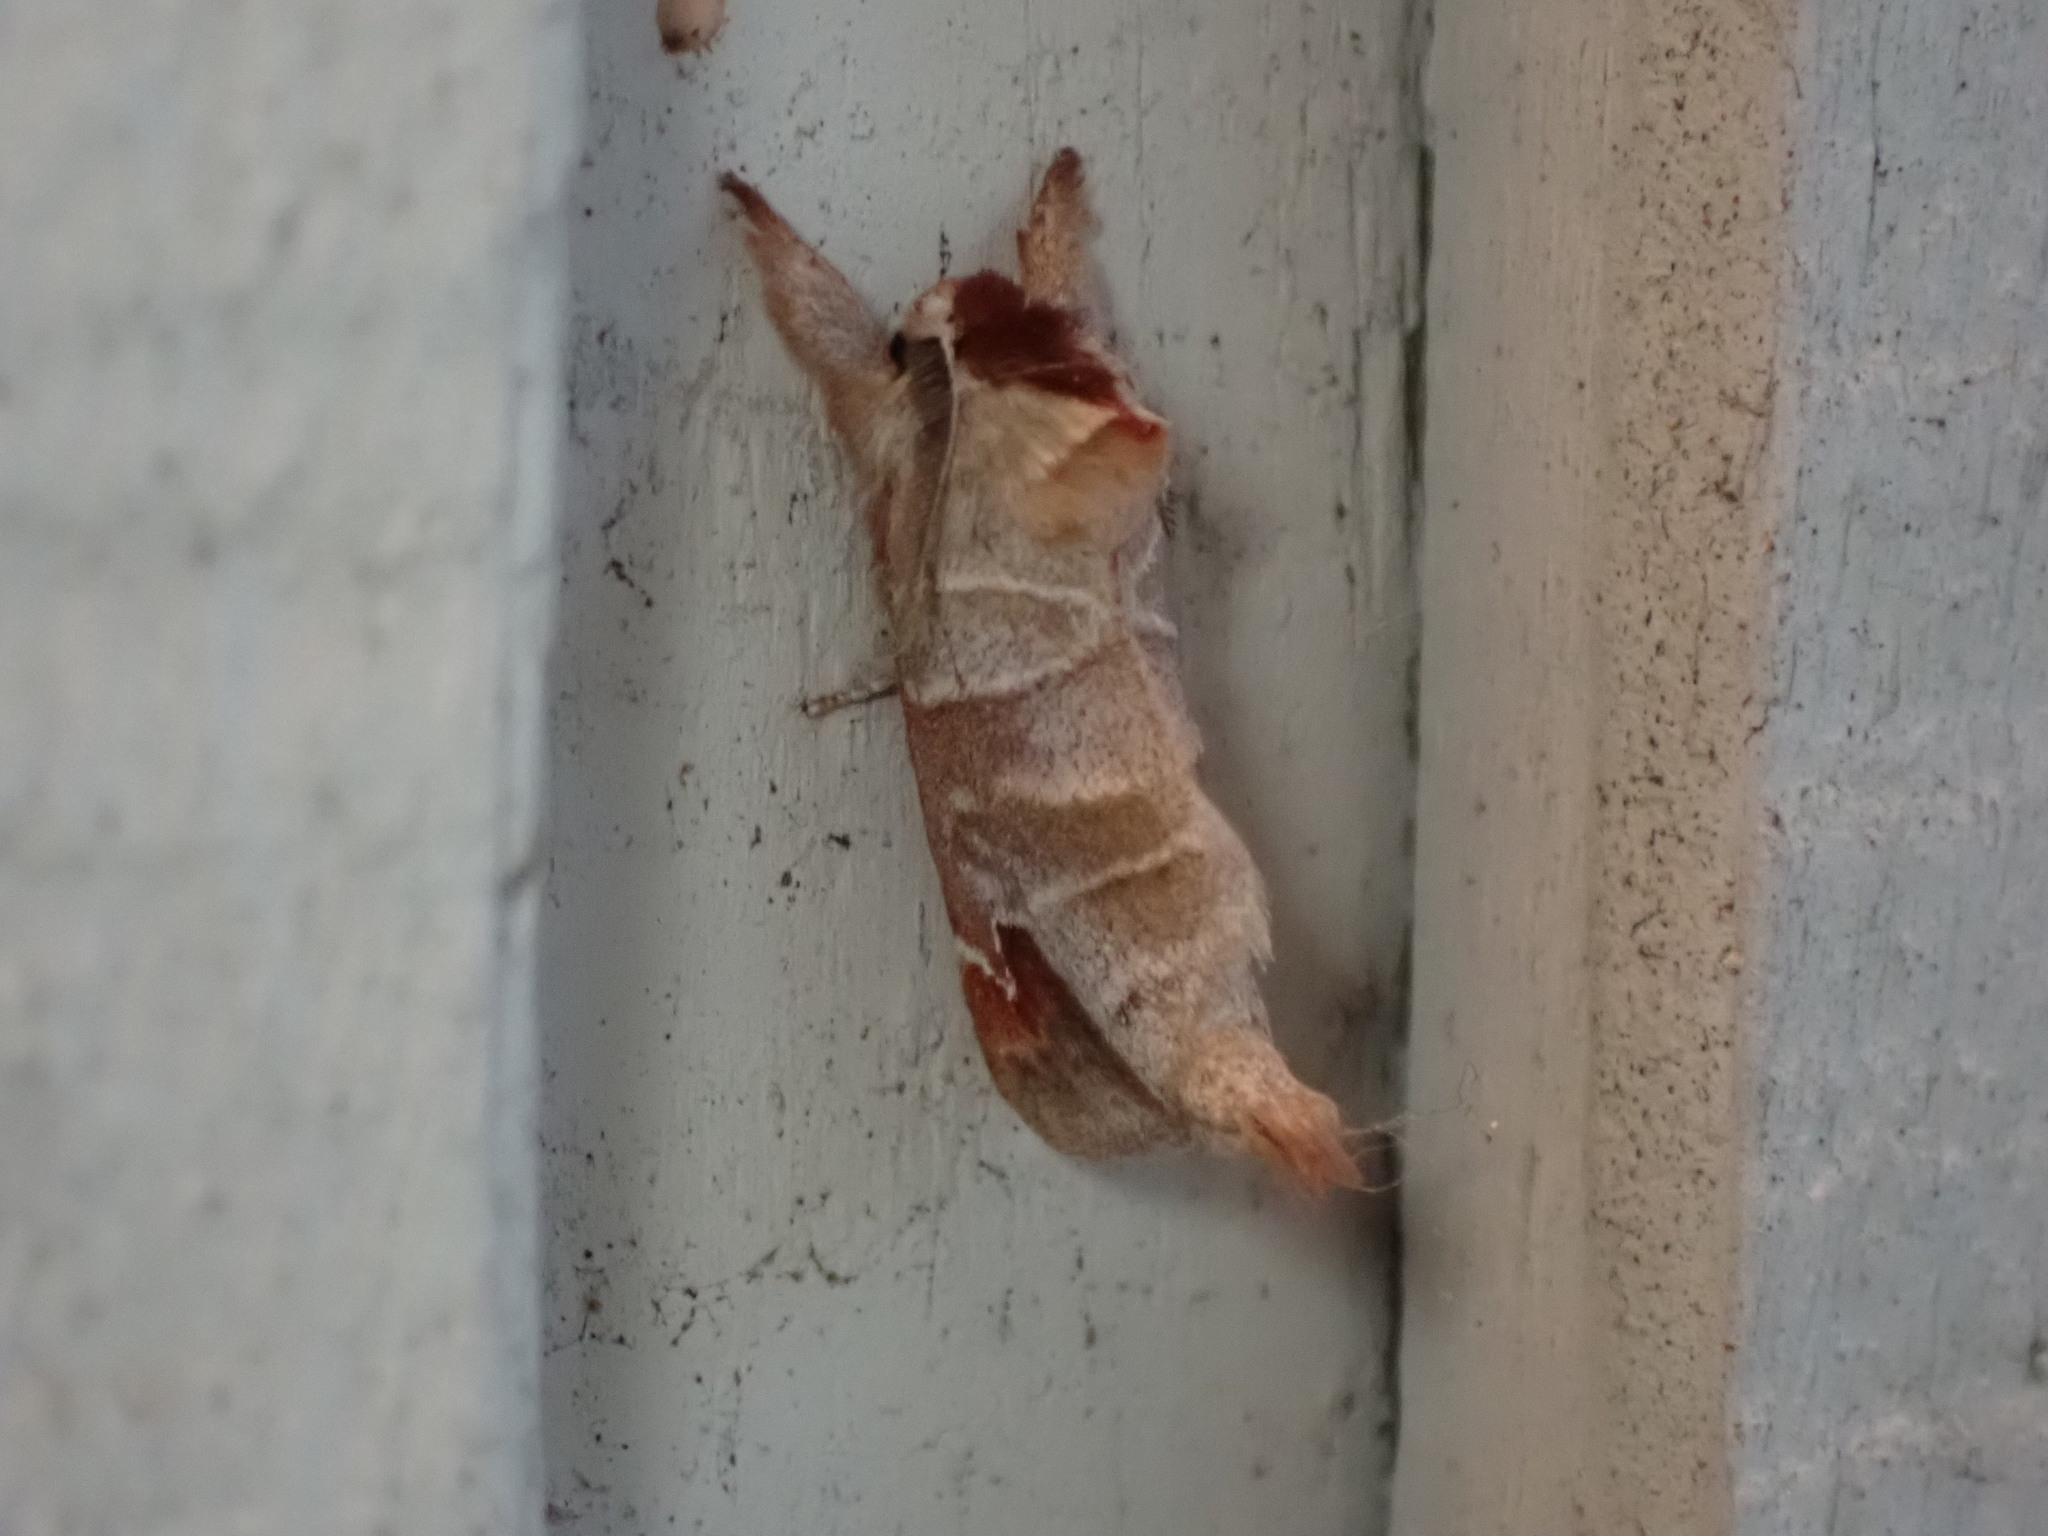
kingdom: Animalia
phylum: Arthropoda
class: Insecta
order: Lepidoptera
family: Notodontidae
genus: Clostera
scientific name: Clostera albosigma
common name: Sigmoid prominent
